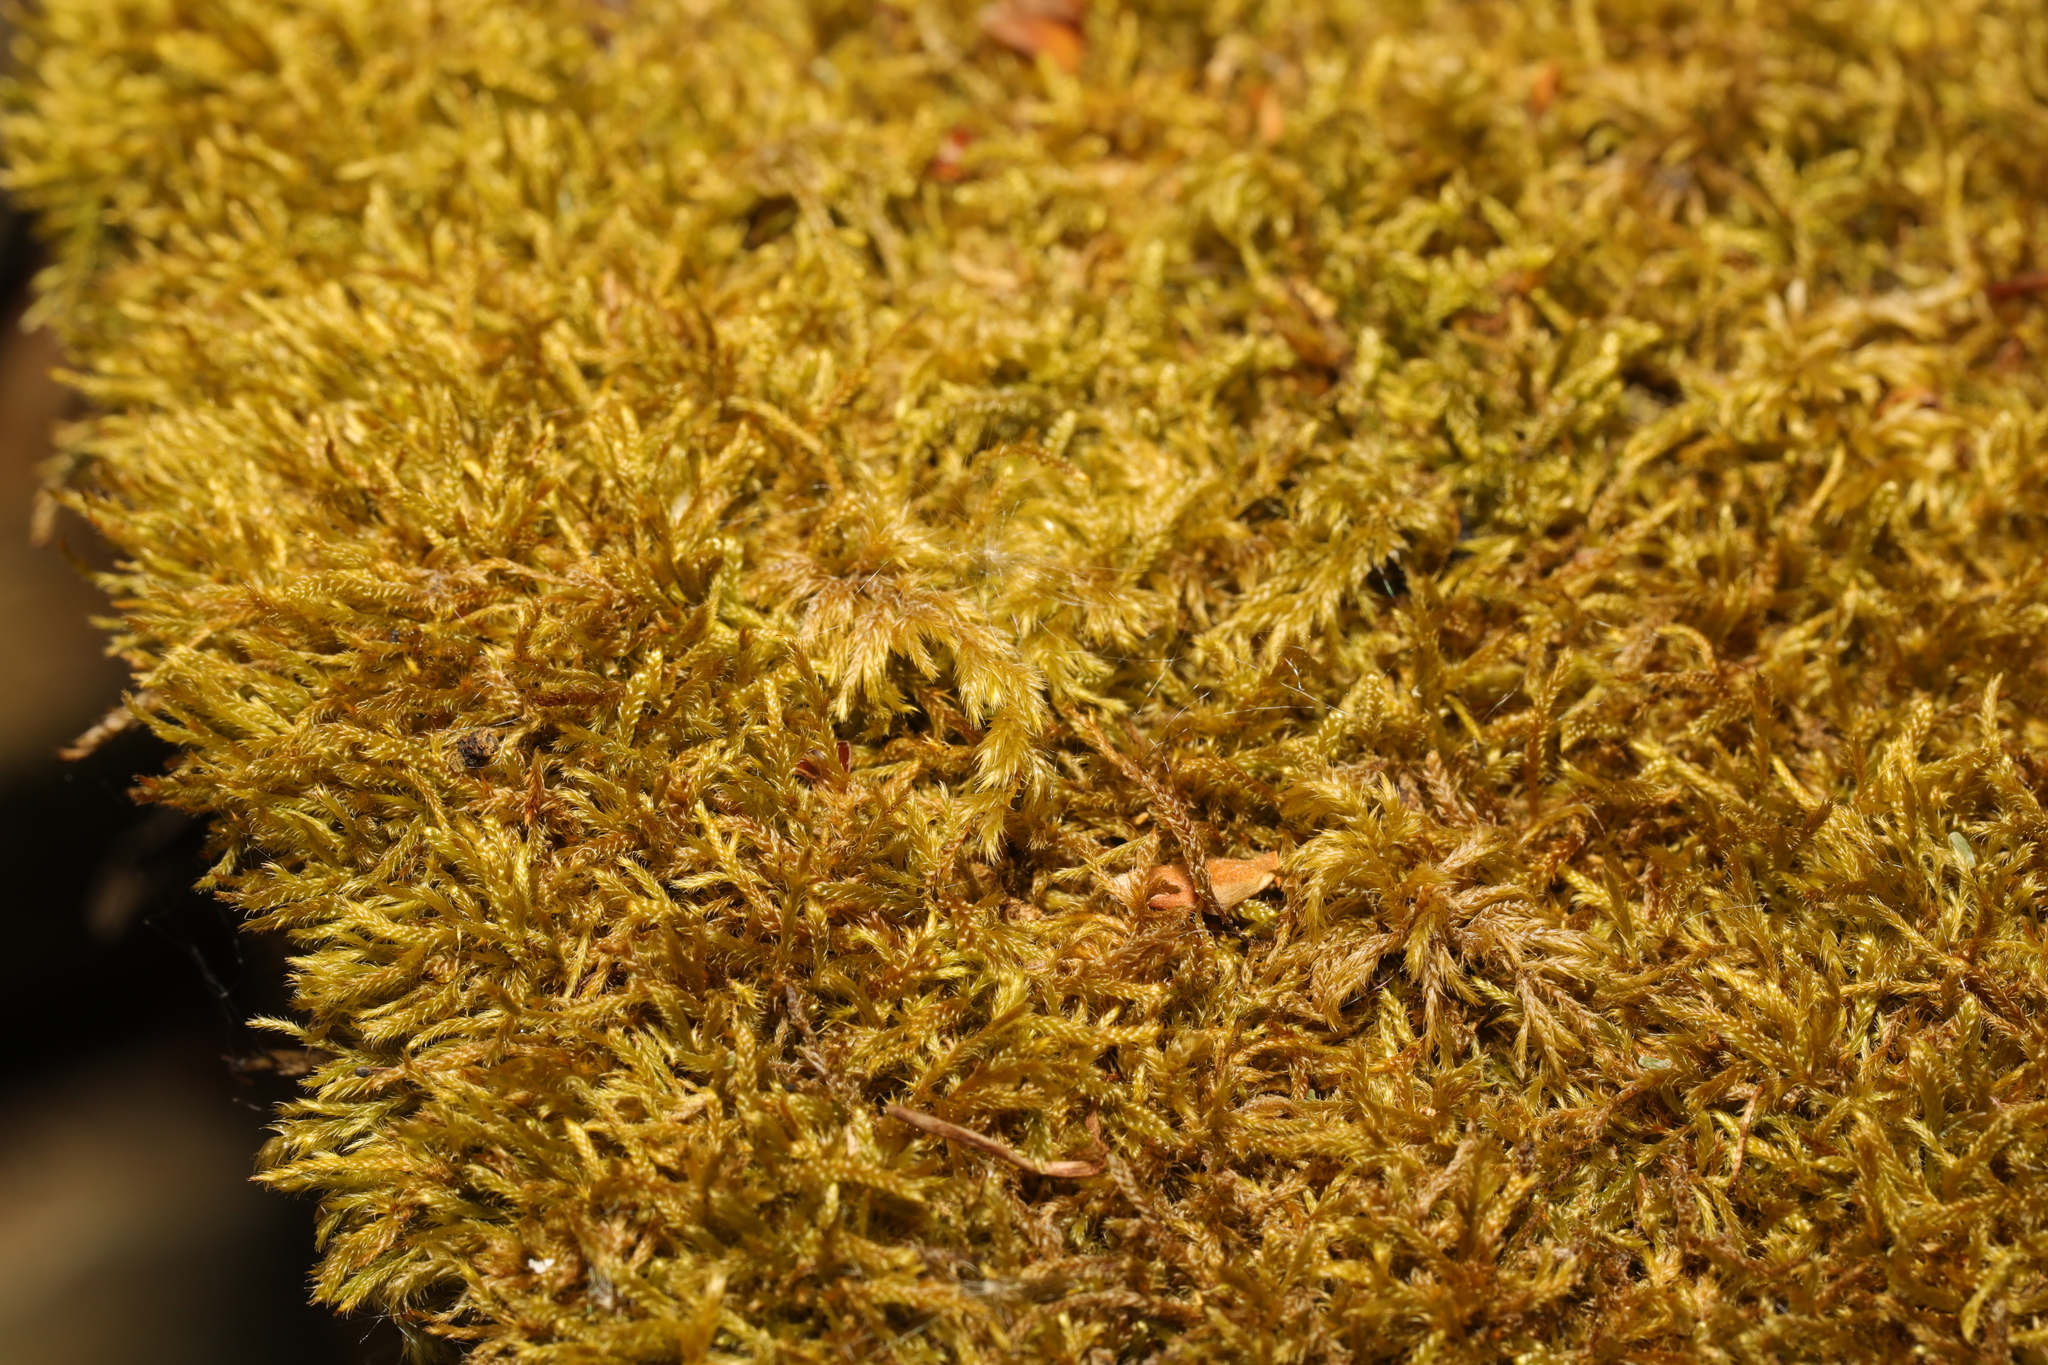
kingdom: Plantae
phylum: Bryophyta
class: Bryopsida
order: Hypnales
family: Hypnaceae
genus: Hypnum
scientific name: Hypnum cupressiforme
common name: Cypress-leaved plait-moss
